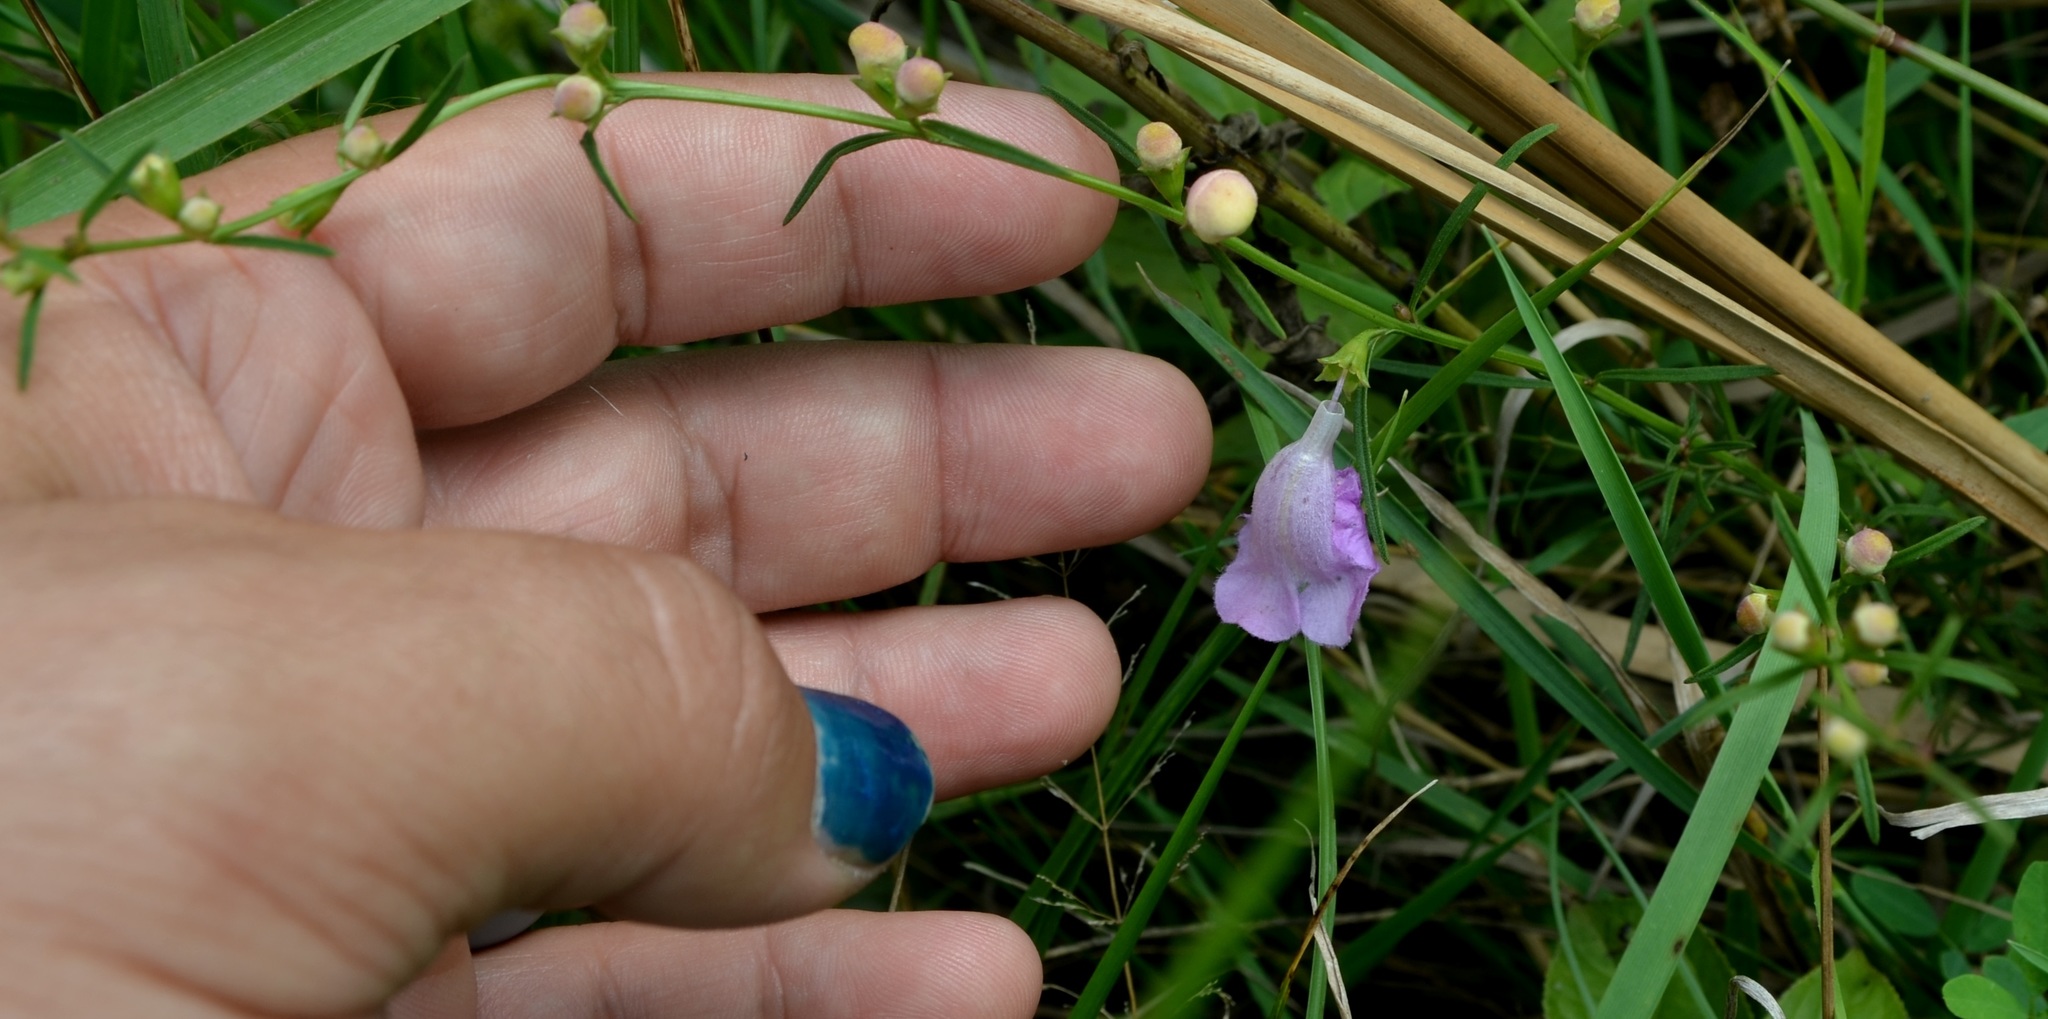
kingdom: Plantae
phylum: Tracheophyta
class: Magnoliopsida
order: Lamiales
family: Orobanchaceae
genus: Agalinis
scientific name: Agalinis purpurea
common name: Purple false foxglove
